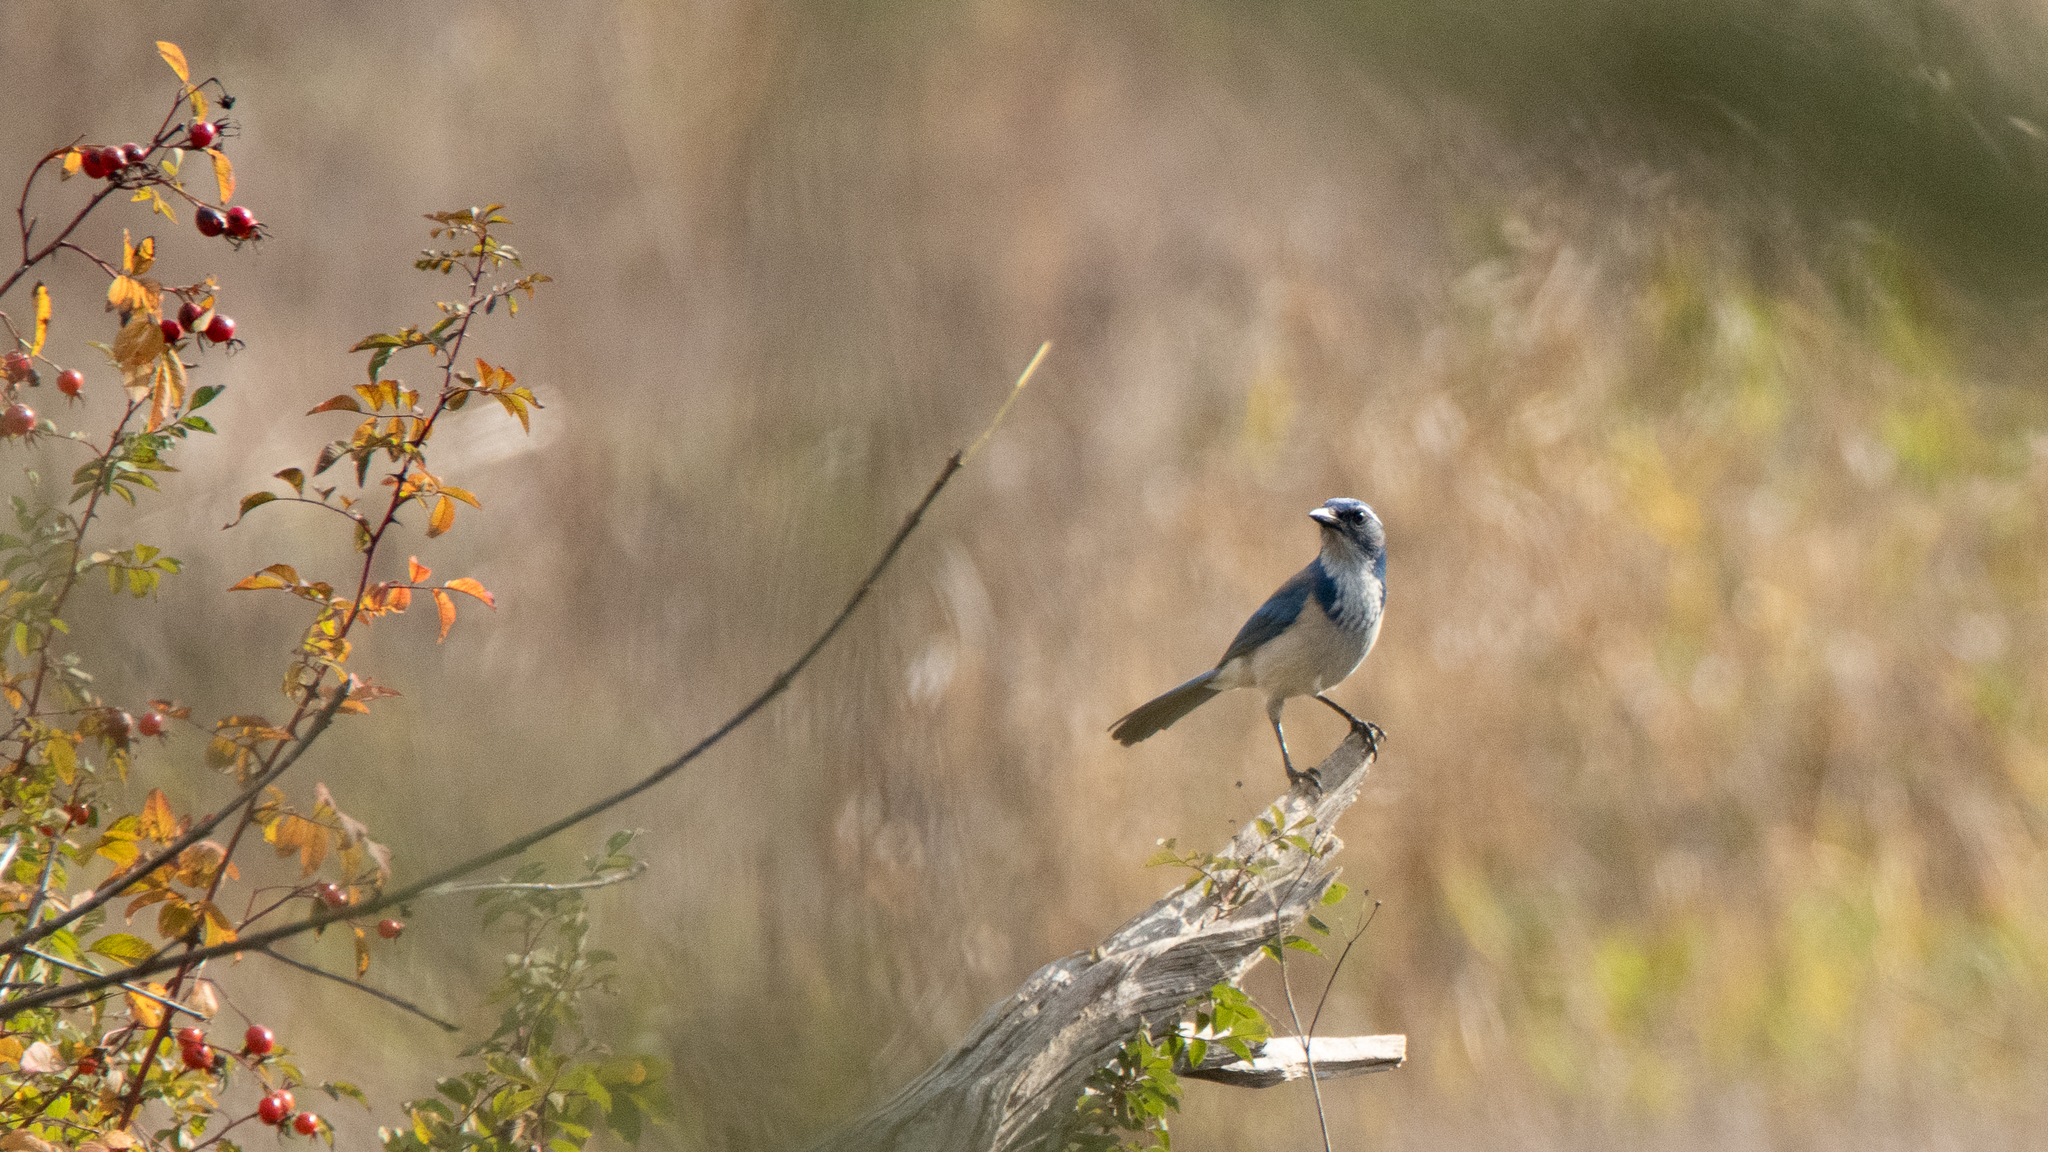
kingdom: Animalia
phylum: Chordata
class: Aves
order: Passeriformes
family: Corvidae
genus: Aphelocoma
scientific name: Aphelocoma californica
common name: California scrub-jay
